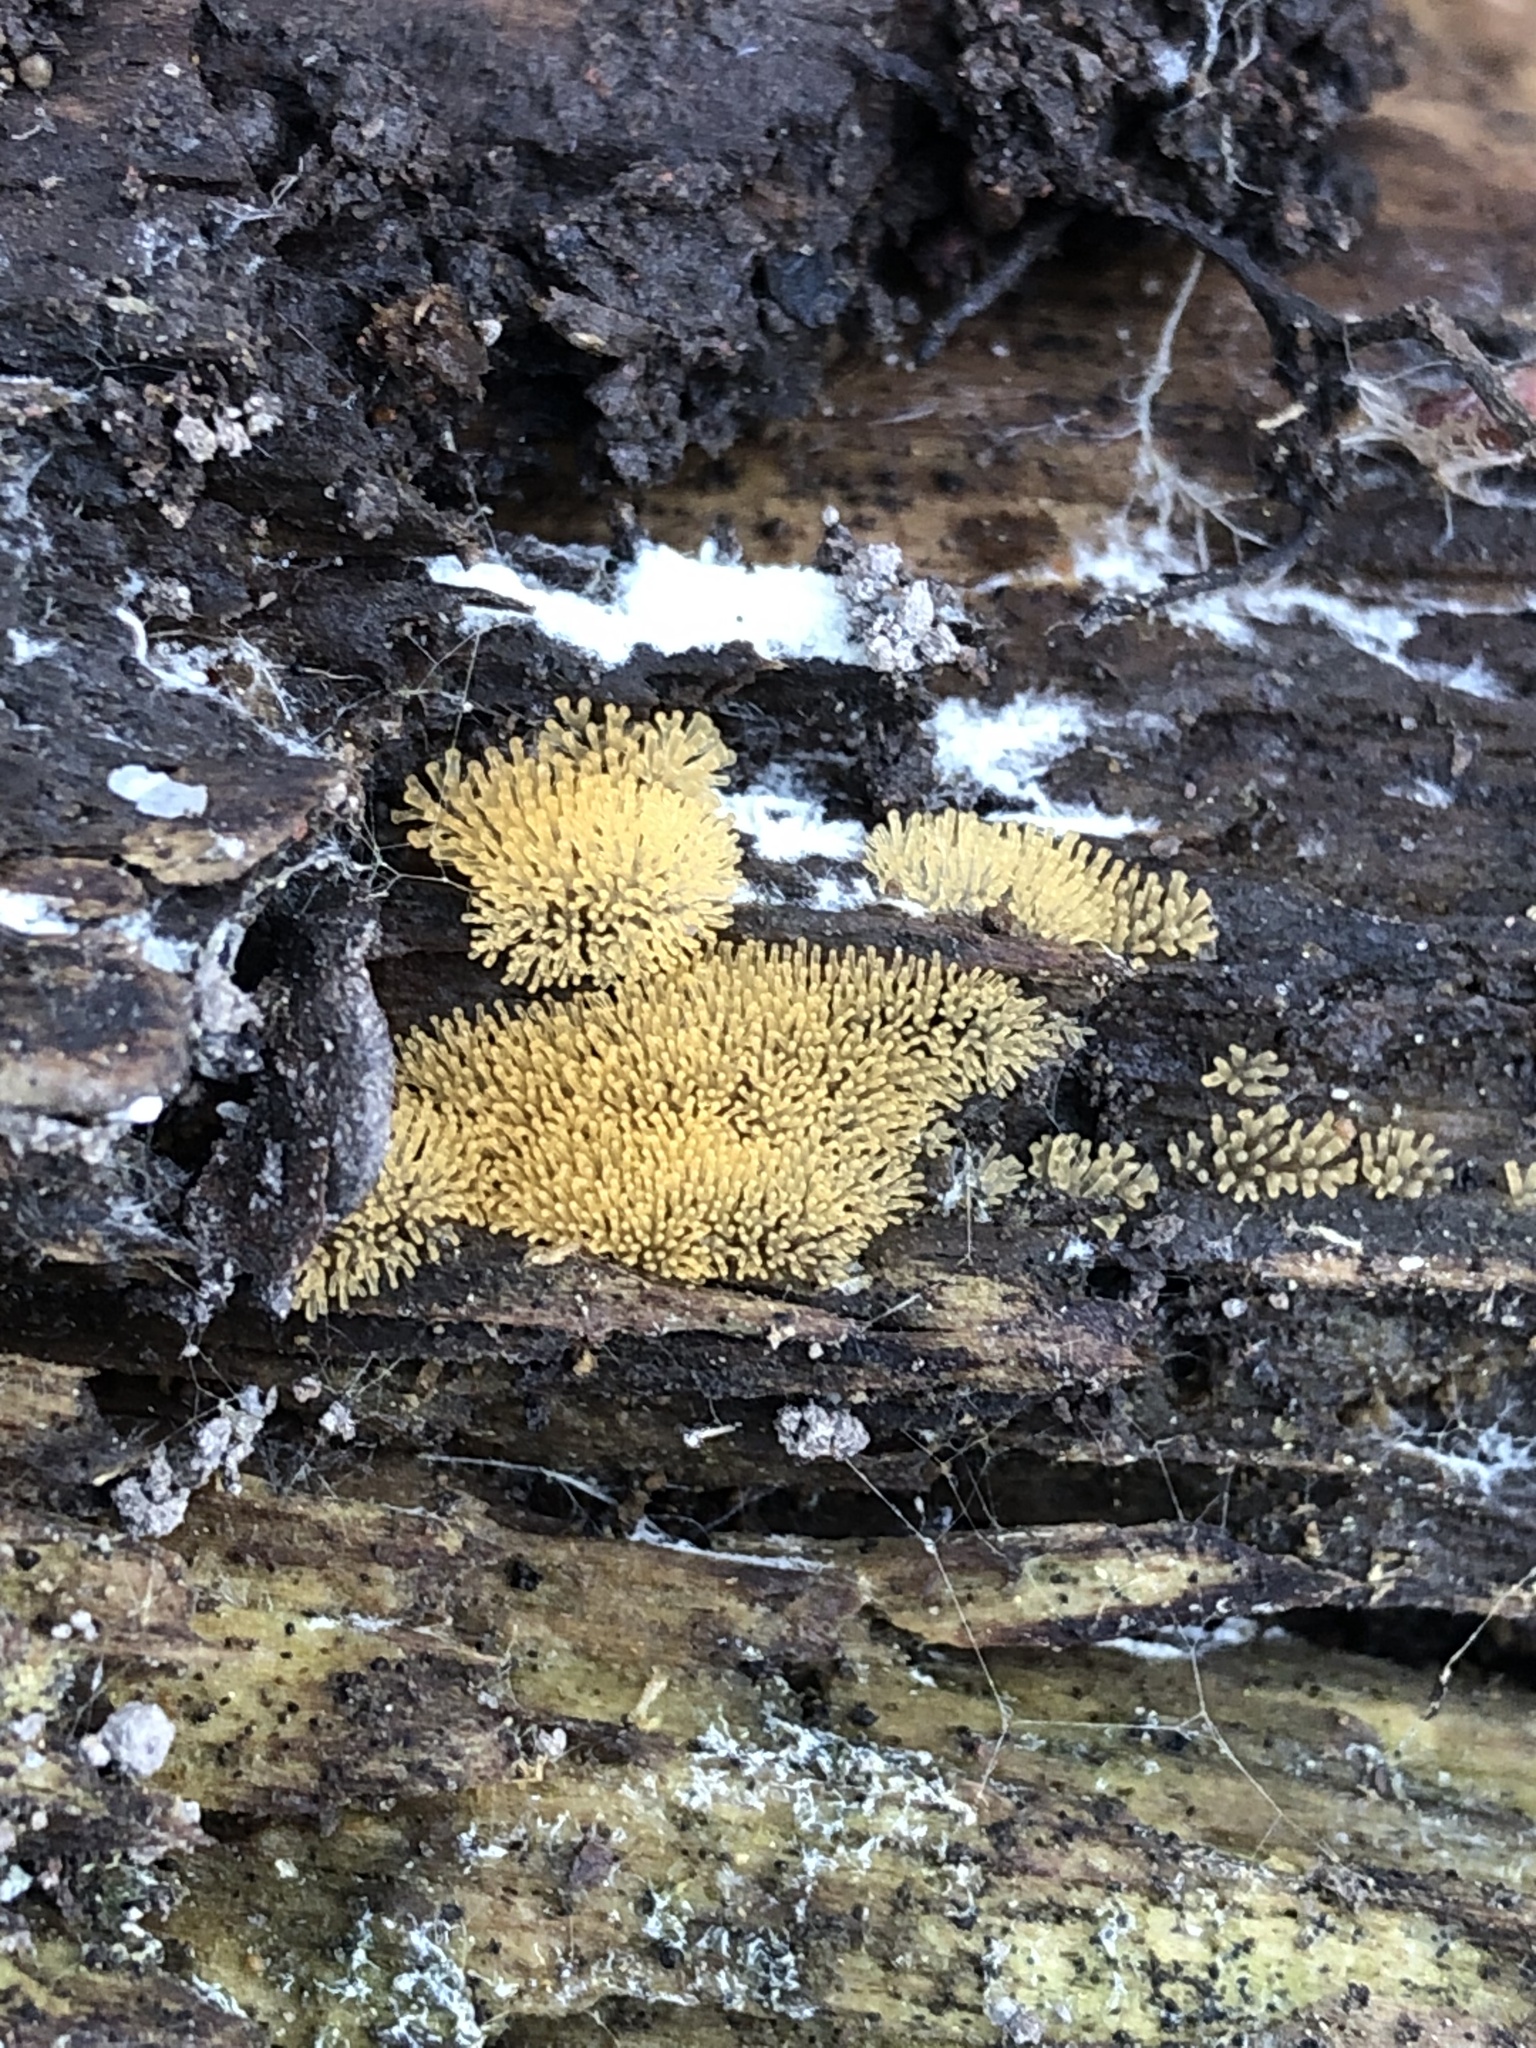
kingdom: Protozoa
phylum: Mycetozoa
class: Protosteliomycetes
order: Ceratiomyxales
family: Ceratiomyxaceae
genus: Ceratiomyxa
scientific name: Ceratiomyxa fruticulosa
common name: Honeycomb coral slime mold
